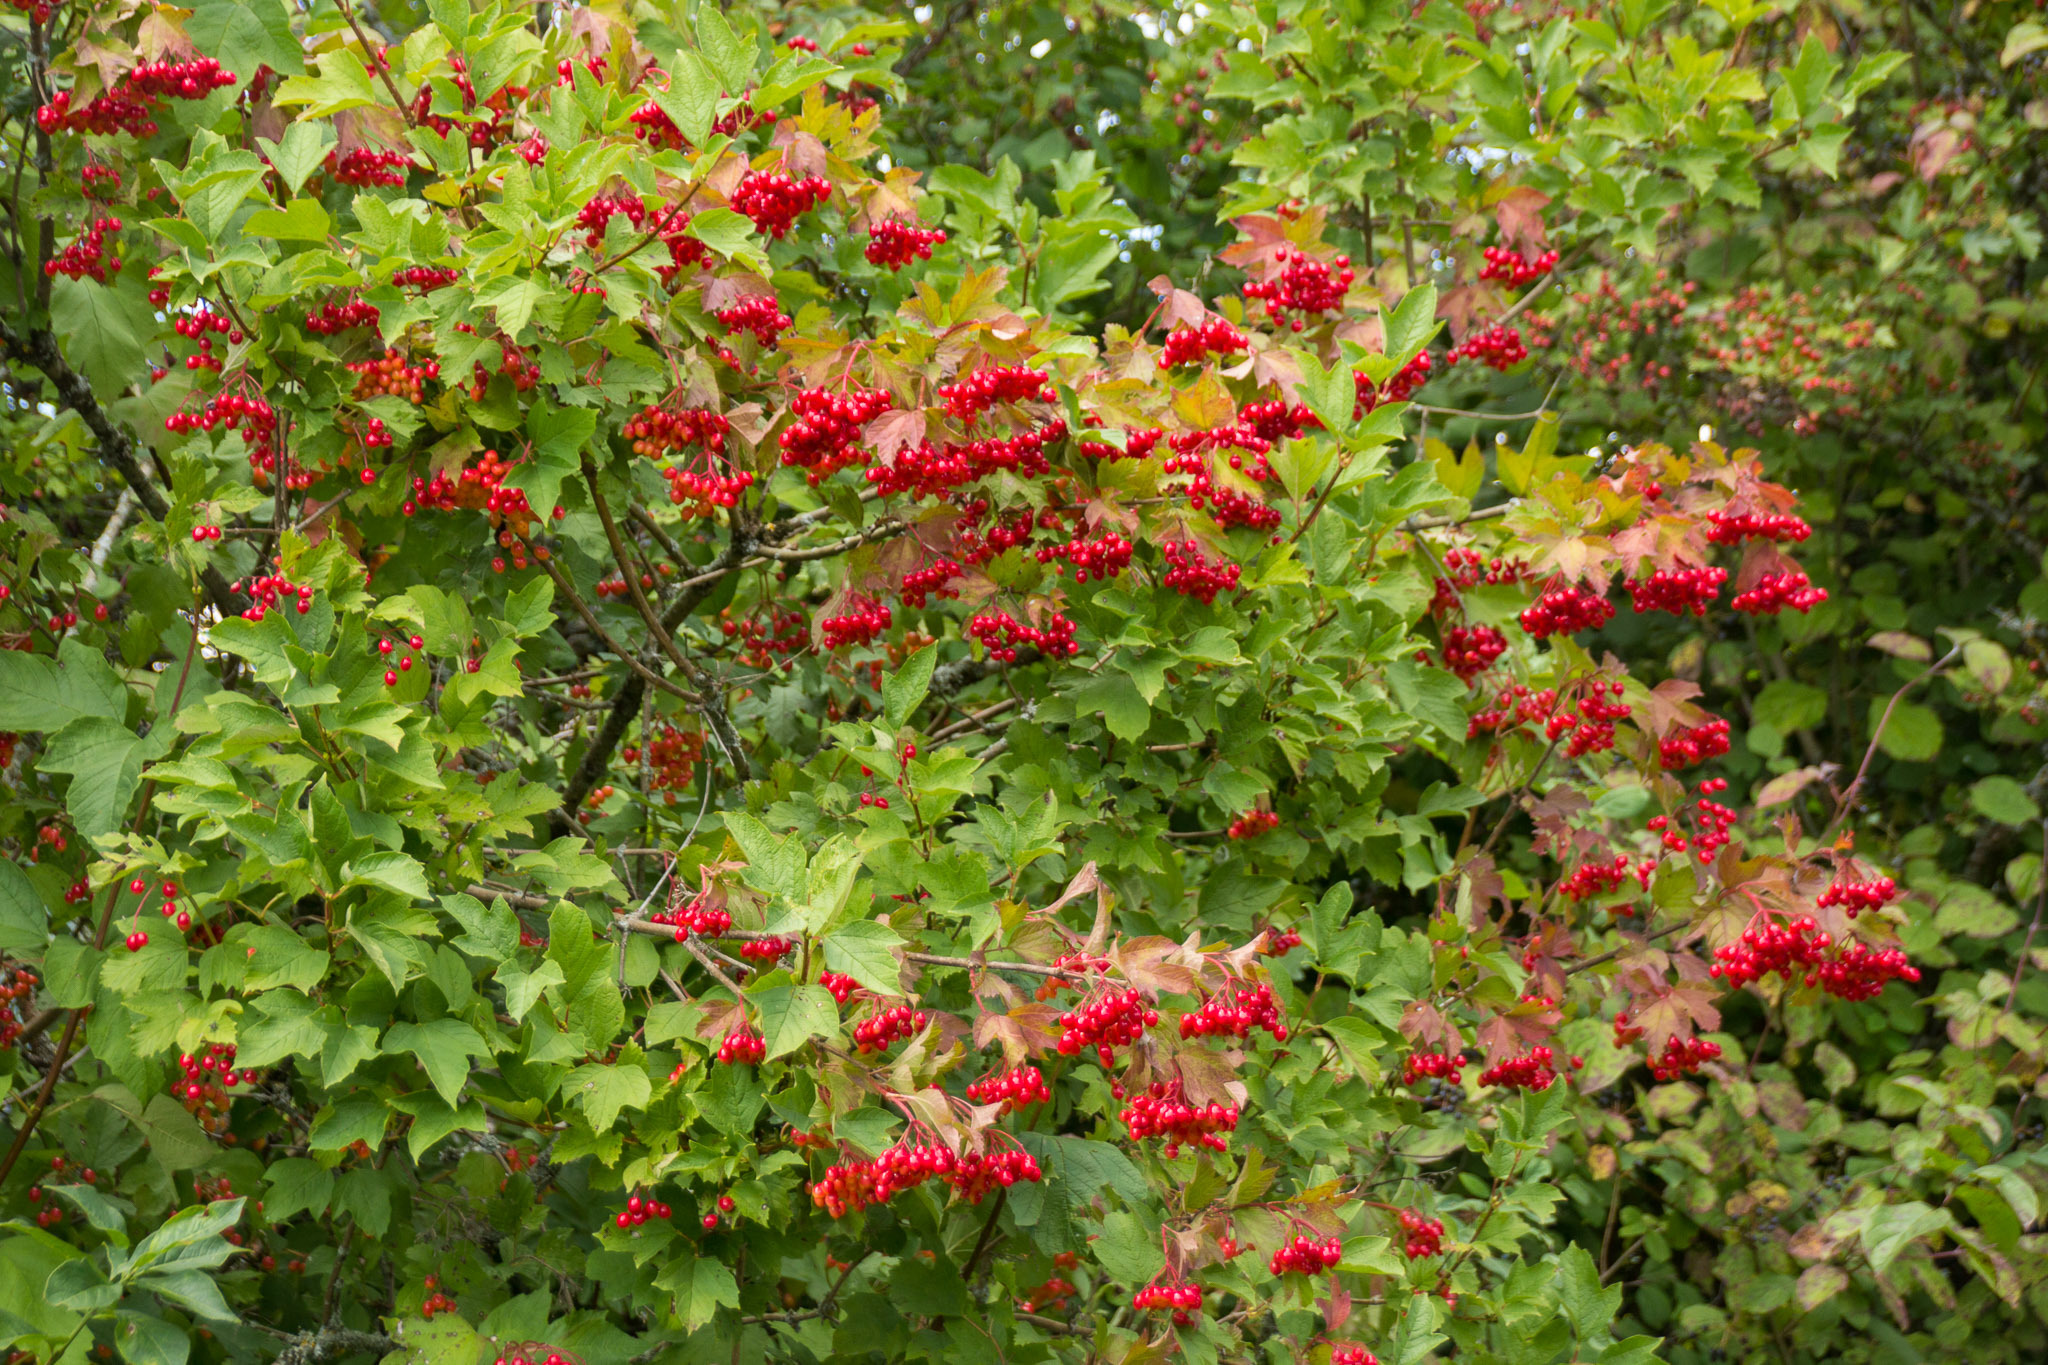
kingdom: Plantae
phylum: Tracheophyta
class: Magnoliopsida
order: Dipsacales
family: Viburnaceae
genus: Viburnum
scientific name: Viburnum opulus
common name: Guelder-rose
